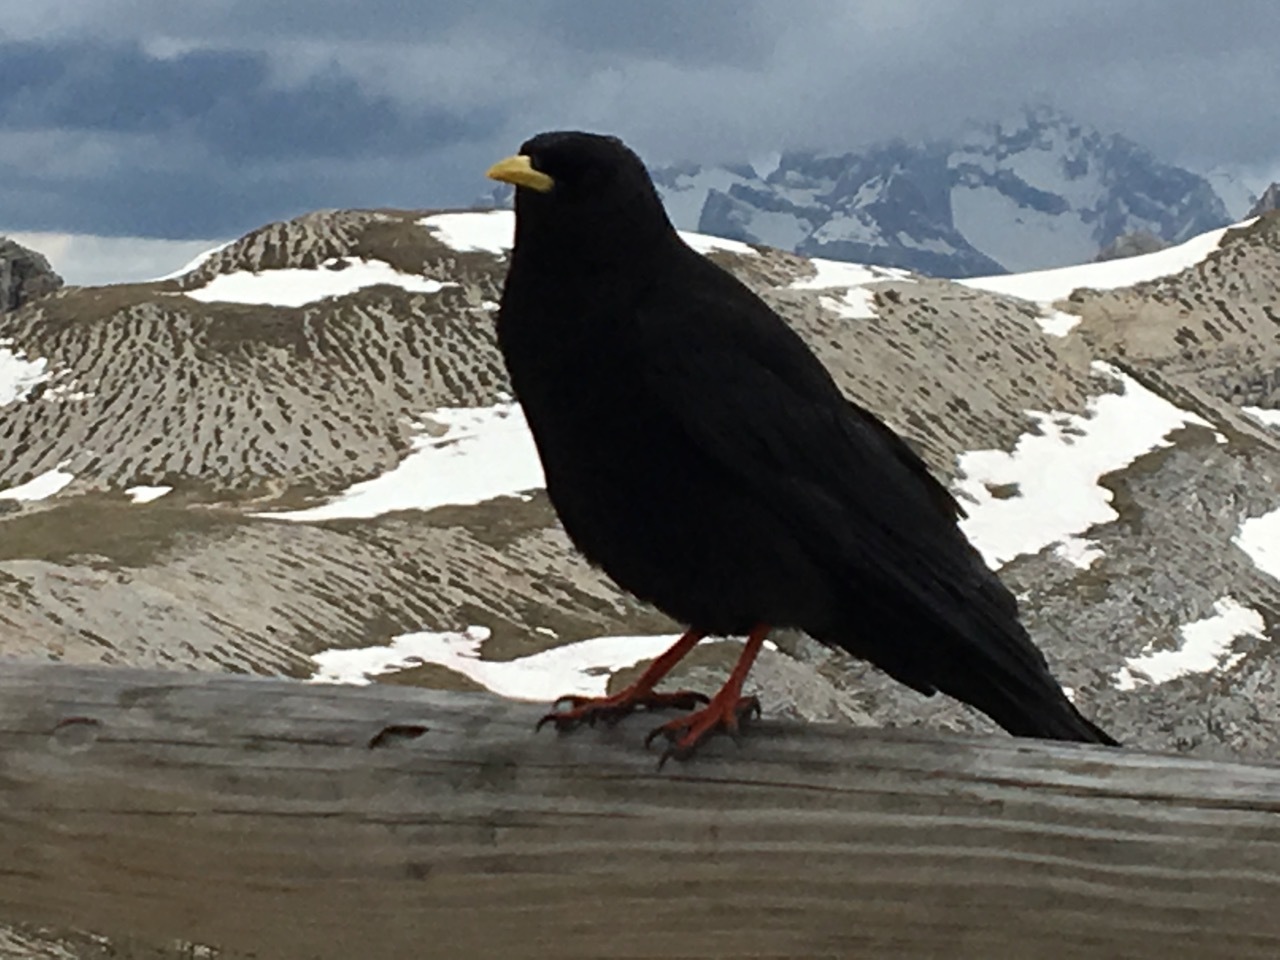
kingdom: Animalia
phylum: Chordata
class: Aves
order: Passeriformes
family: Corvidae
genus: Pyrrhocorax
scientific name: Pyrrhocorax graculus
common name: Alpine chough
